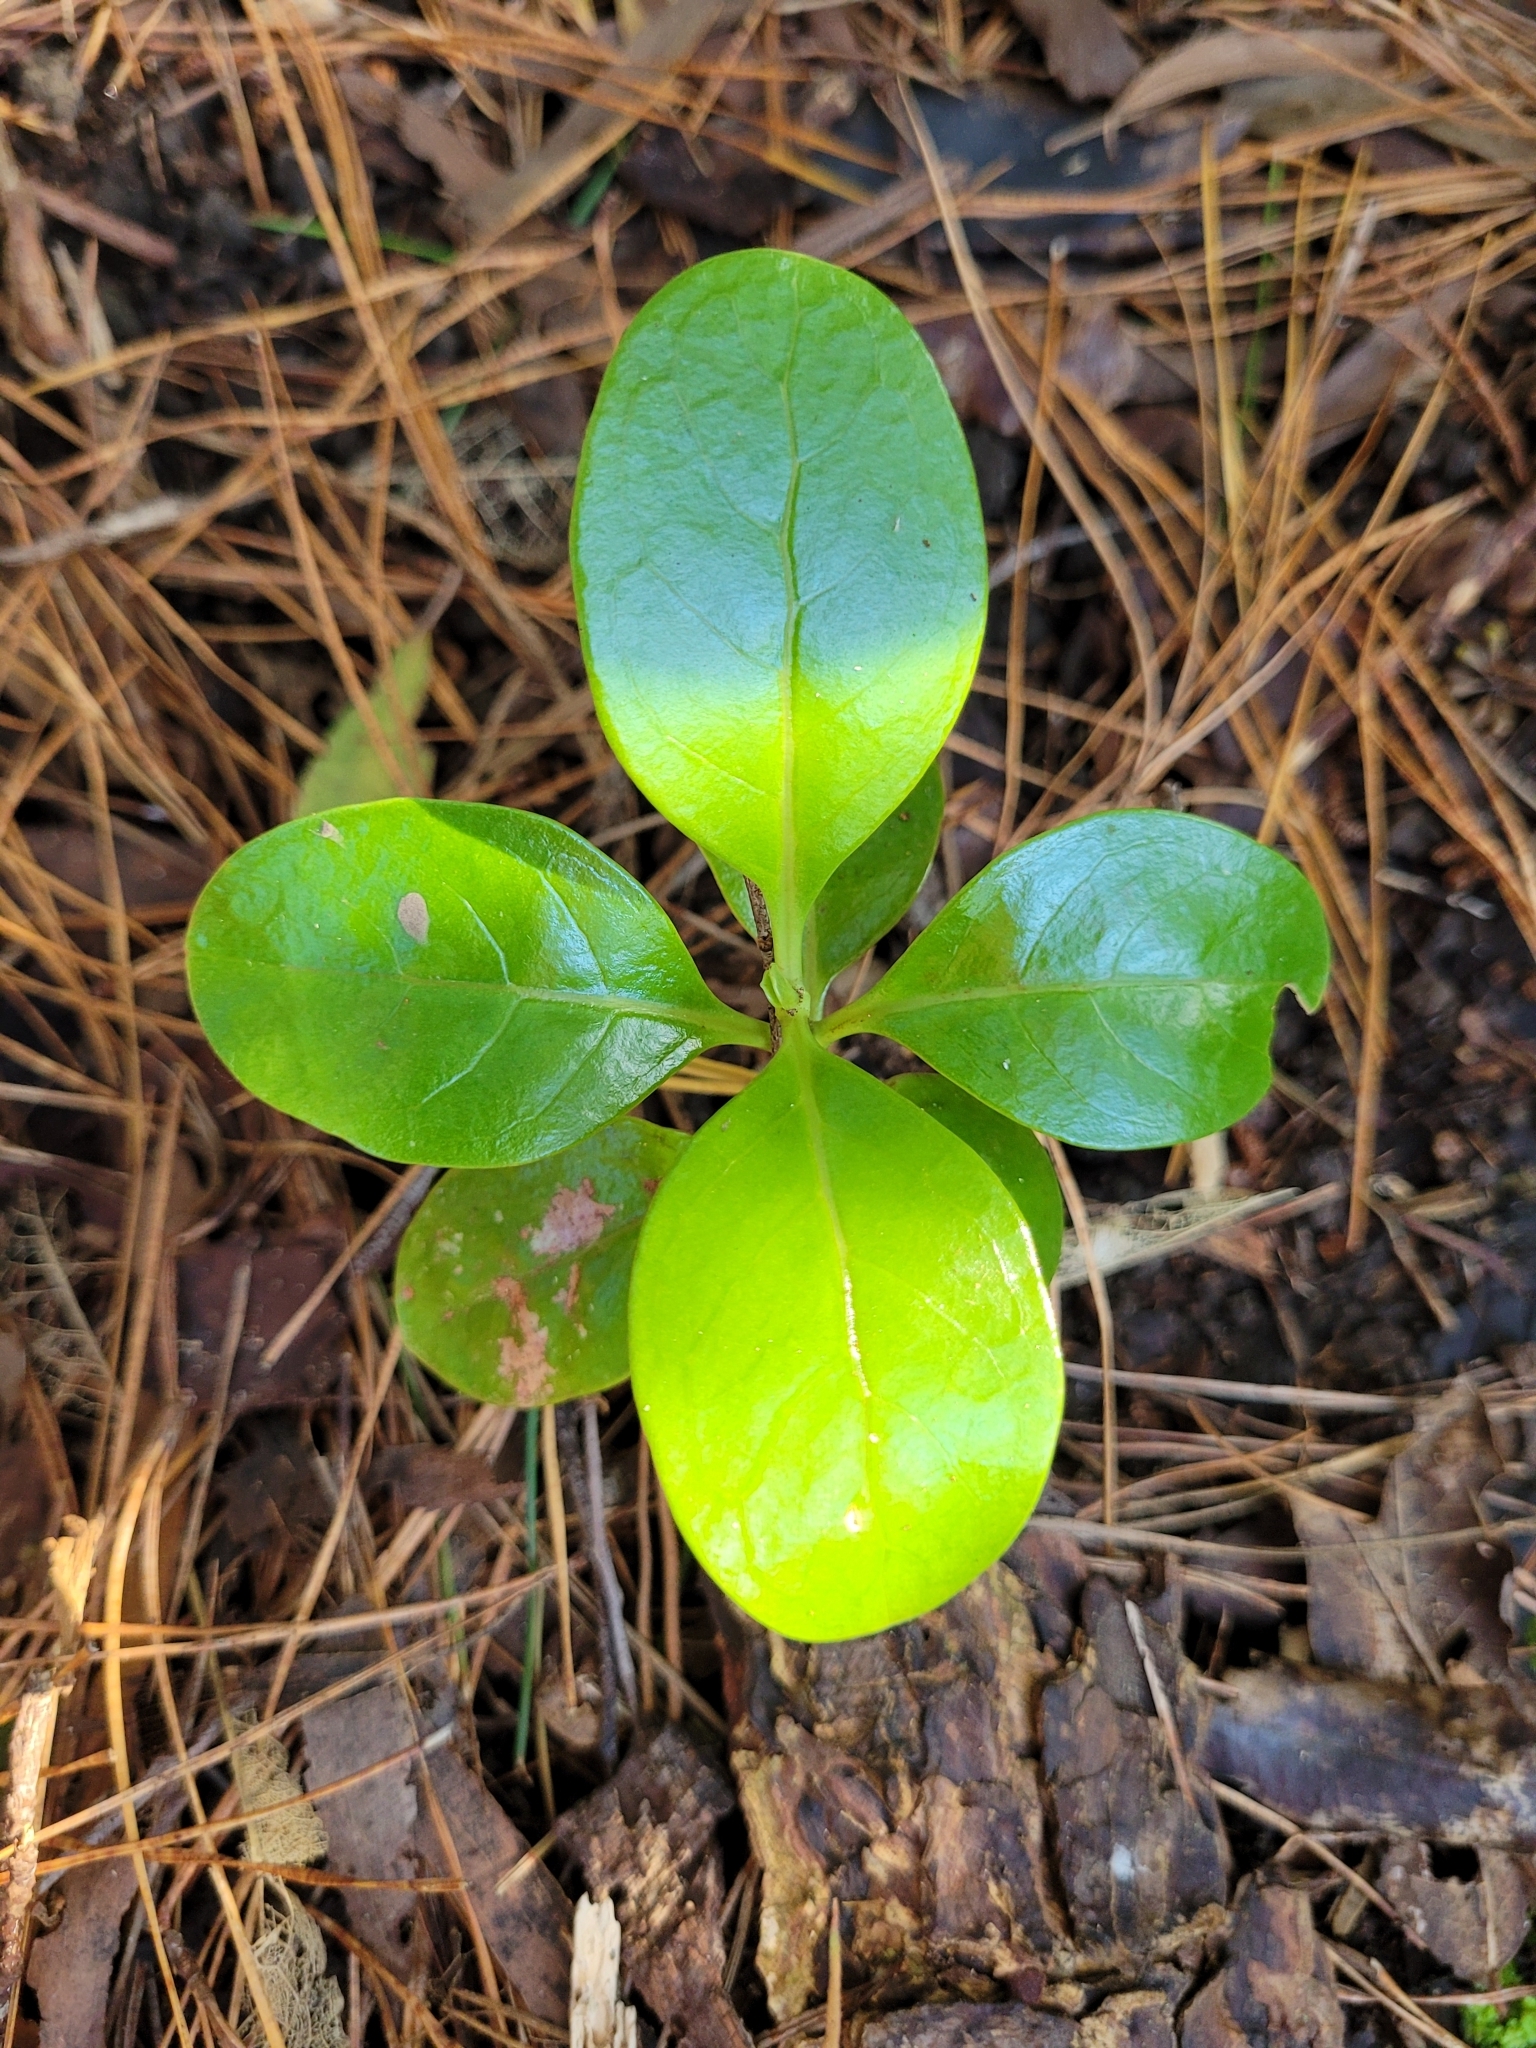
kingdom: Plantae
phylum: Tracheophyta
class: Magnoliopsida
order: Gentianales
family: Rubiaceae
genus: Coprosma
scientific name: Coprosma repens
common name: Tree bedstraw
